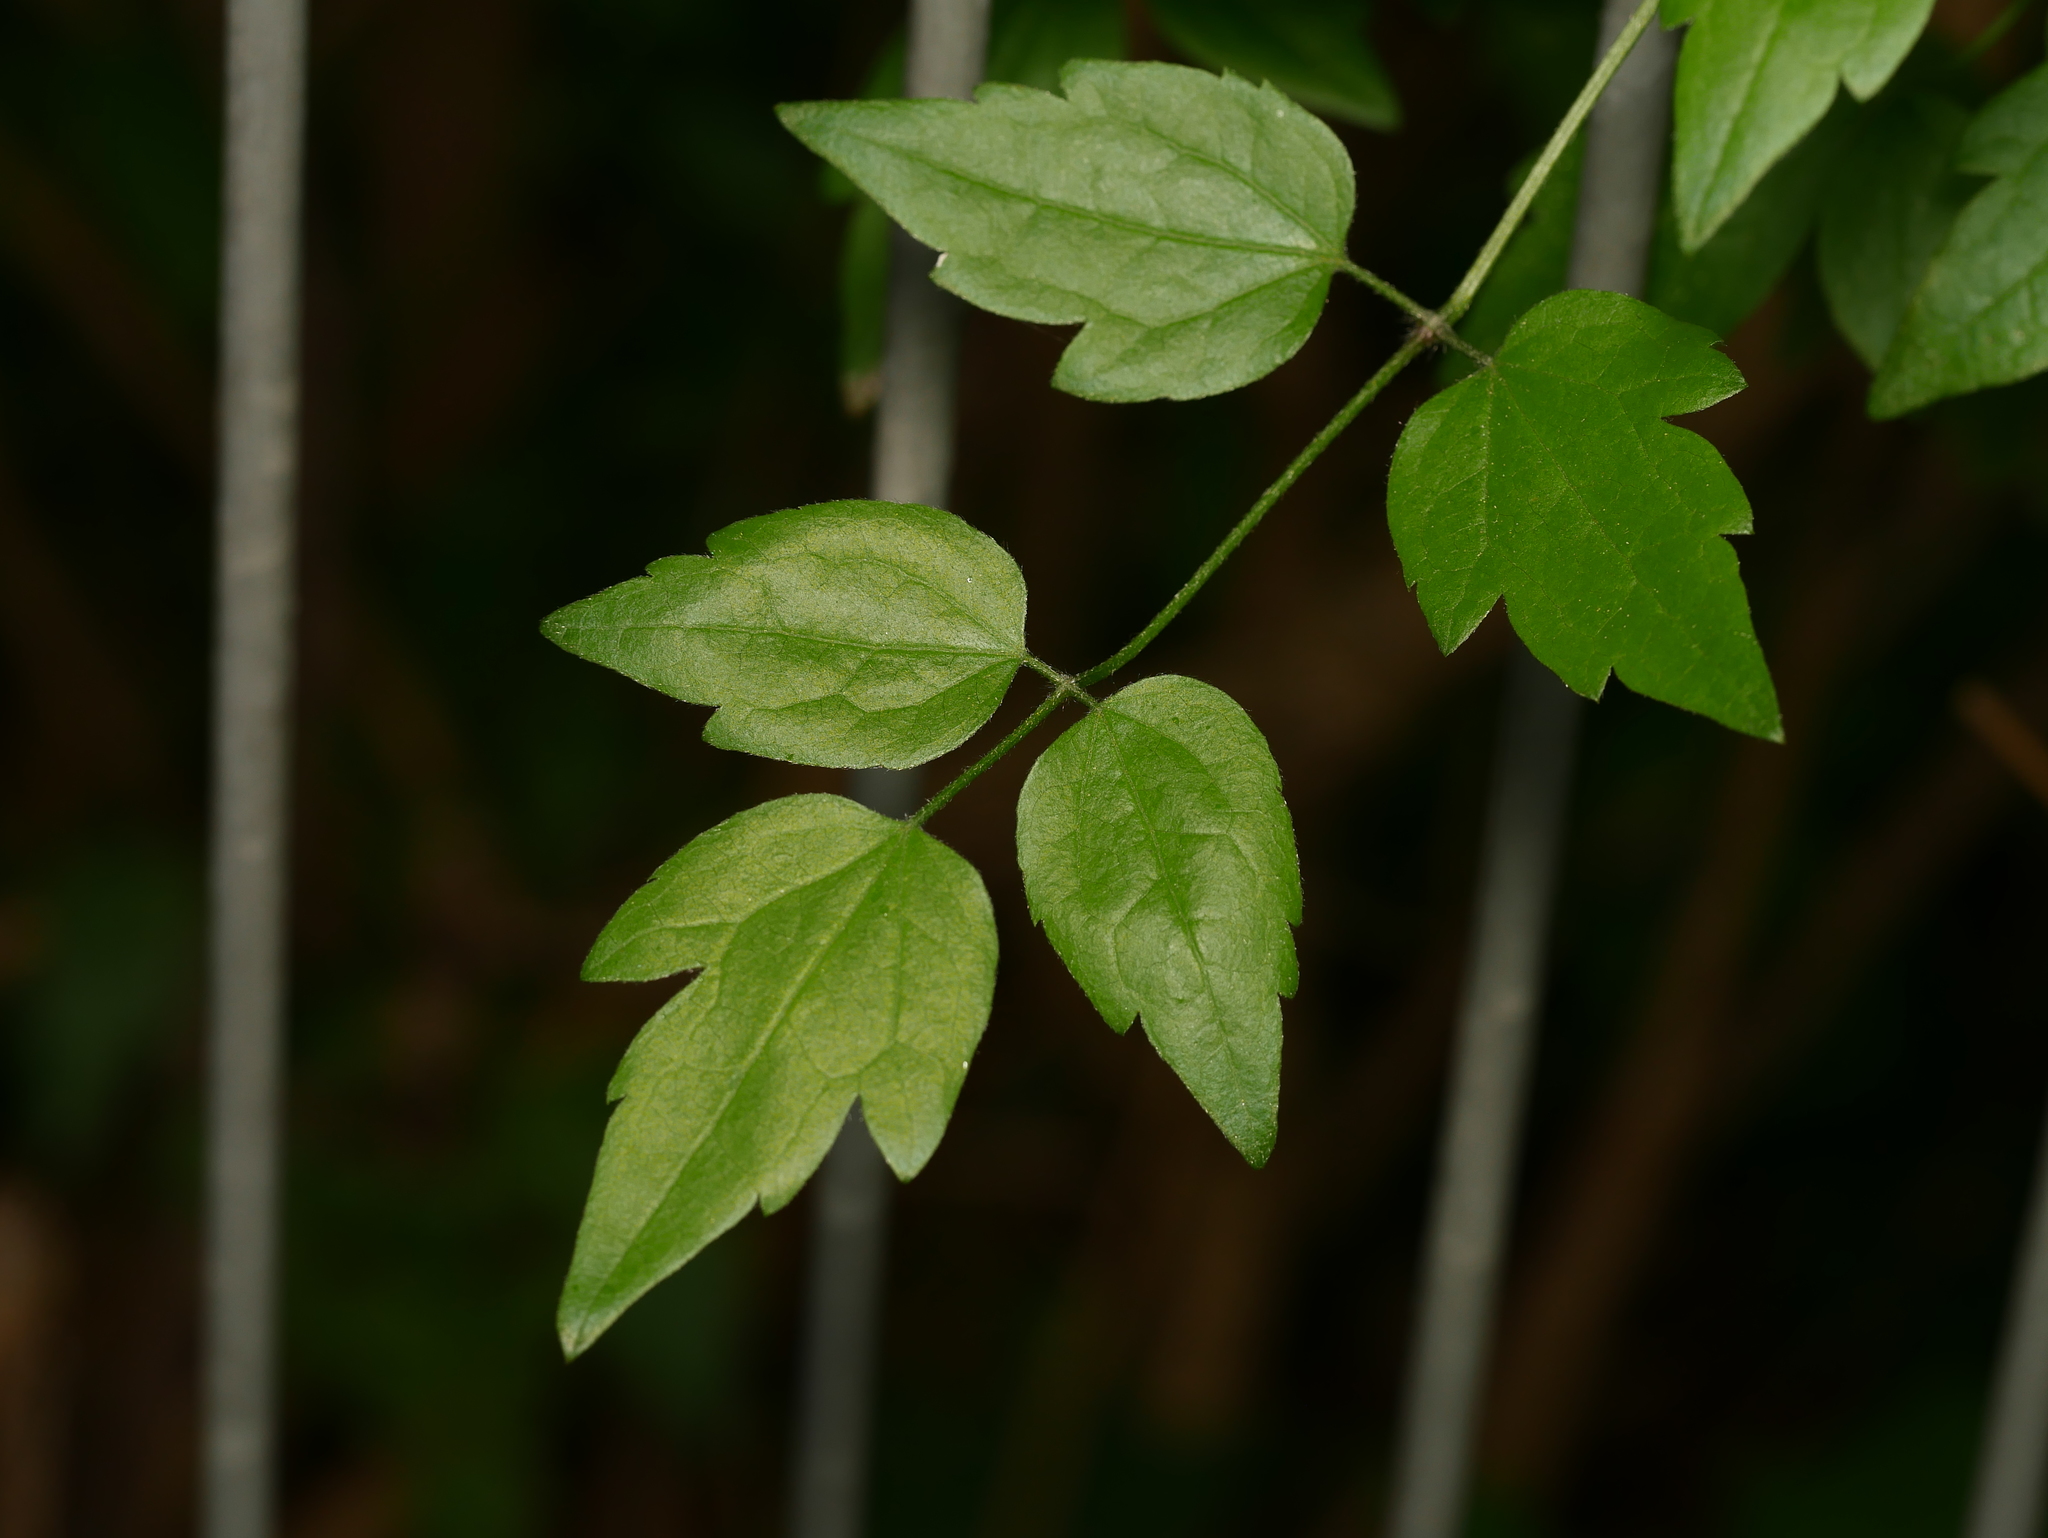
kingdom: Plantae
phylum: Tracheophyta
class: Magnoliopsida
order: Ranunculales
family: Ranunculaceae
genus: Clematis
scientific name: Clematis vitalba
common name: Evergreen clematis
